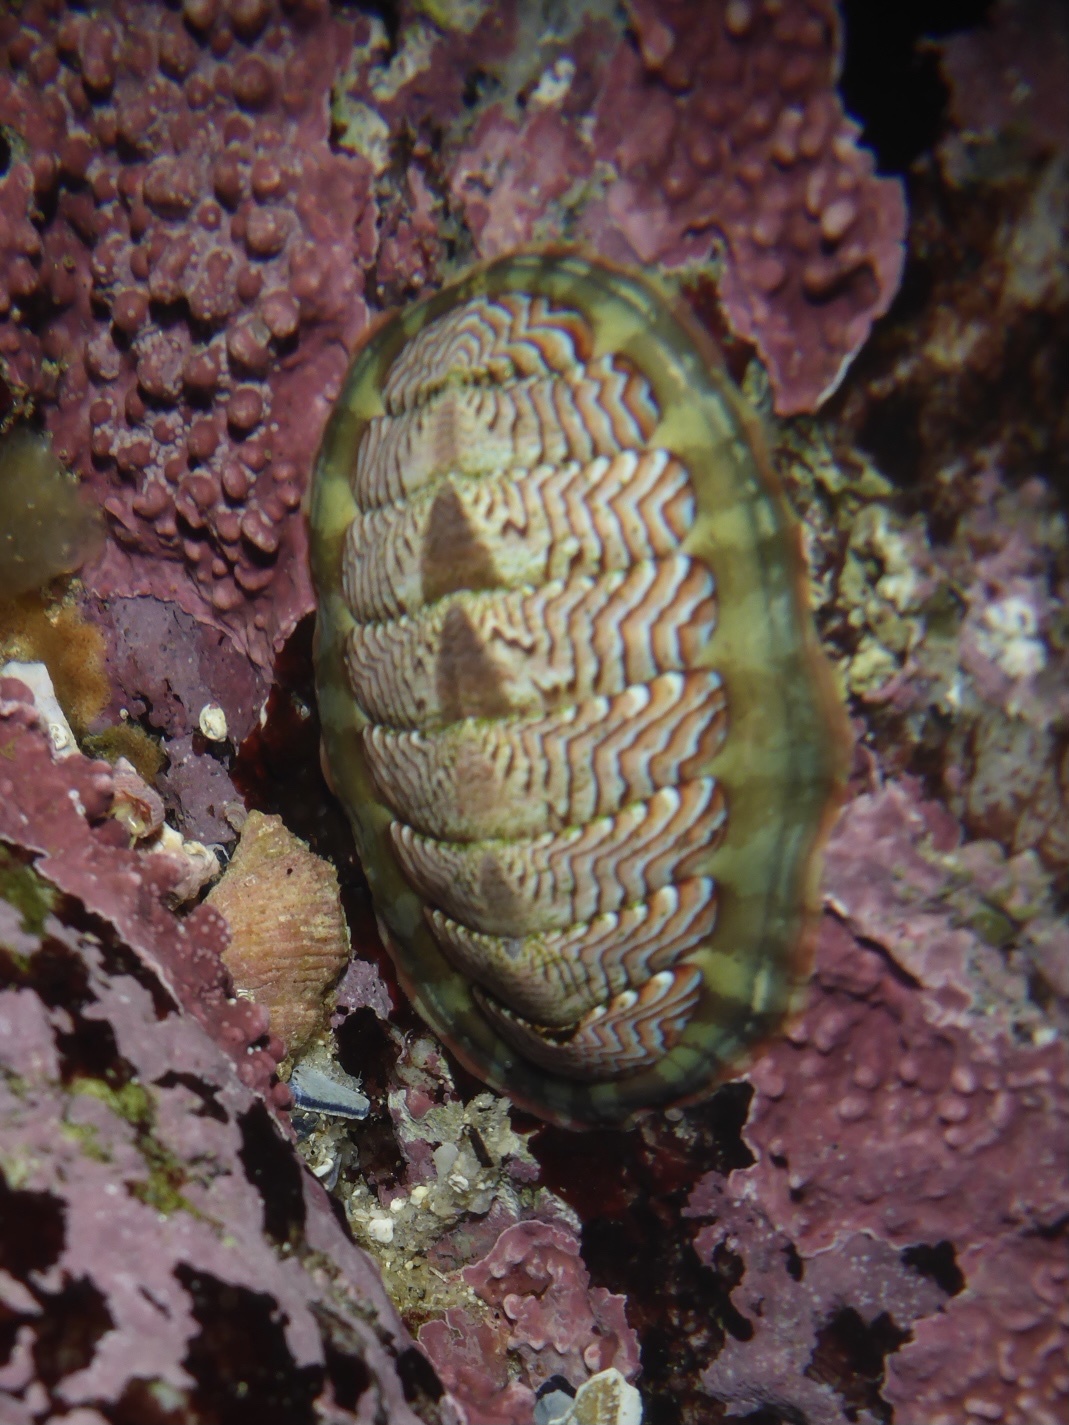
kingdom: Animalia
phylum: Mollusca
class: Polyplacophora
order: Chitonida
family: Tonicellidae
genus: Tonicella
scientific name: Tonicella lokii
